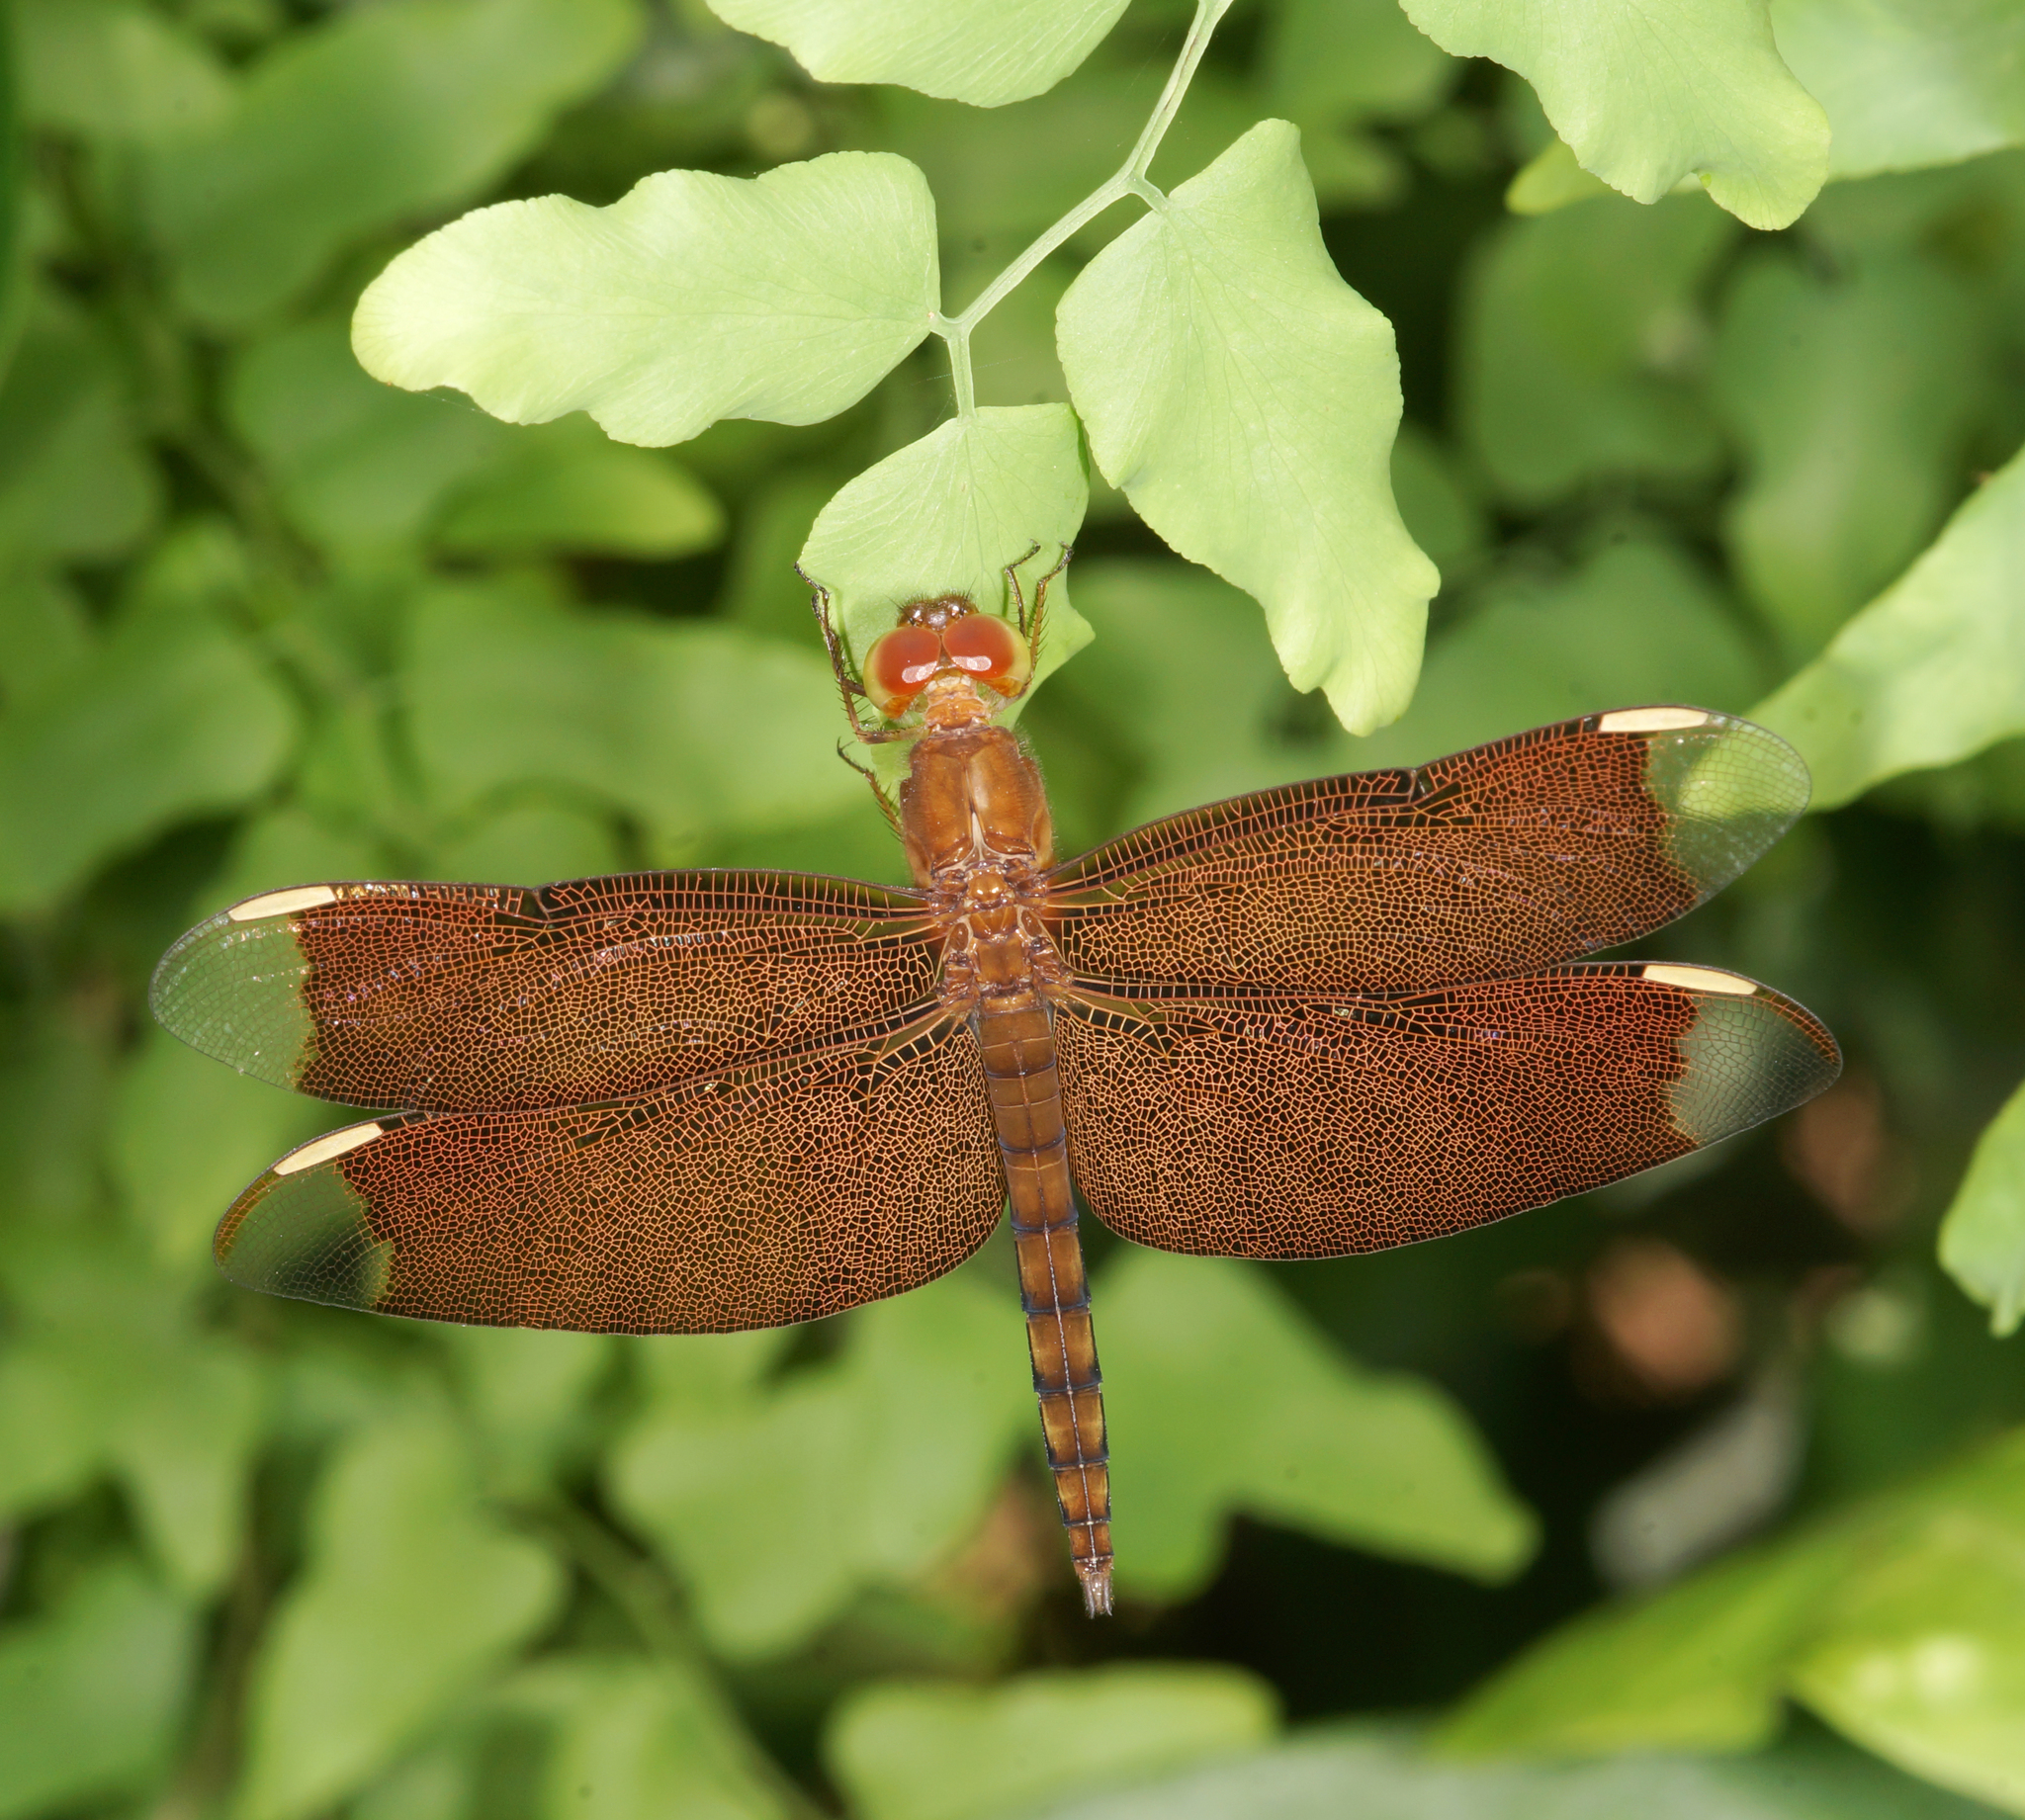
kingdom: Animalia
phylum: Arthropoda
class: Insecta
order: Odonata
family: Libellulidae
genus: Neurothemis
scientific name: Neurothemis fulvia
